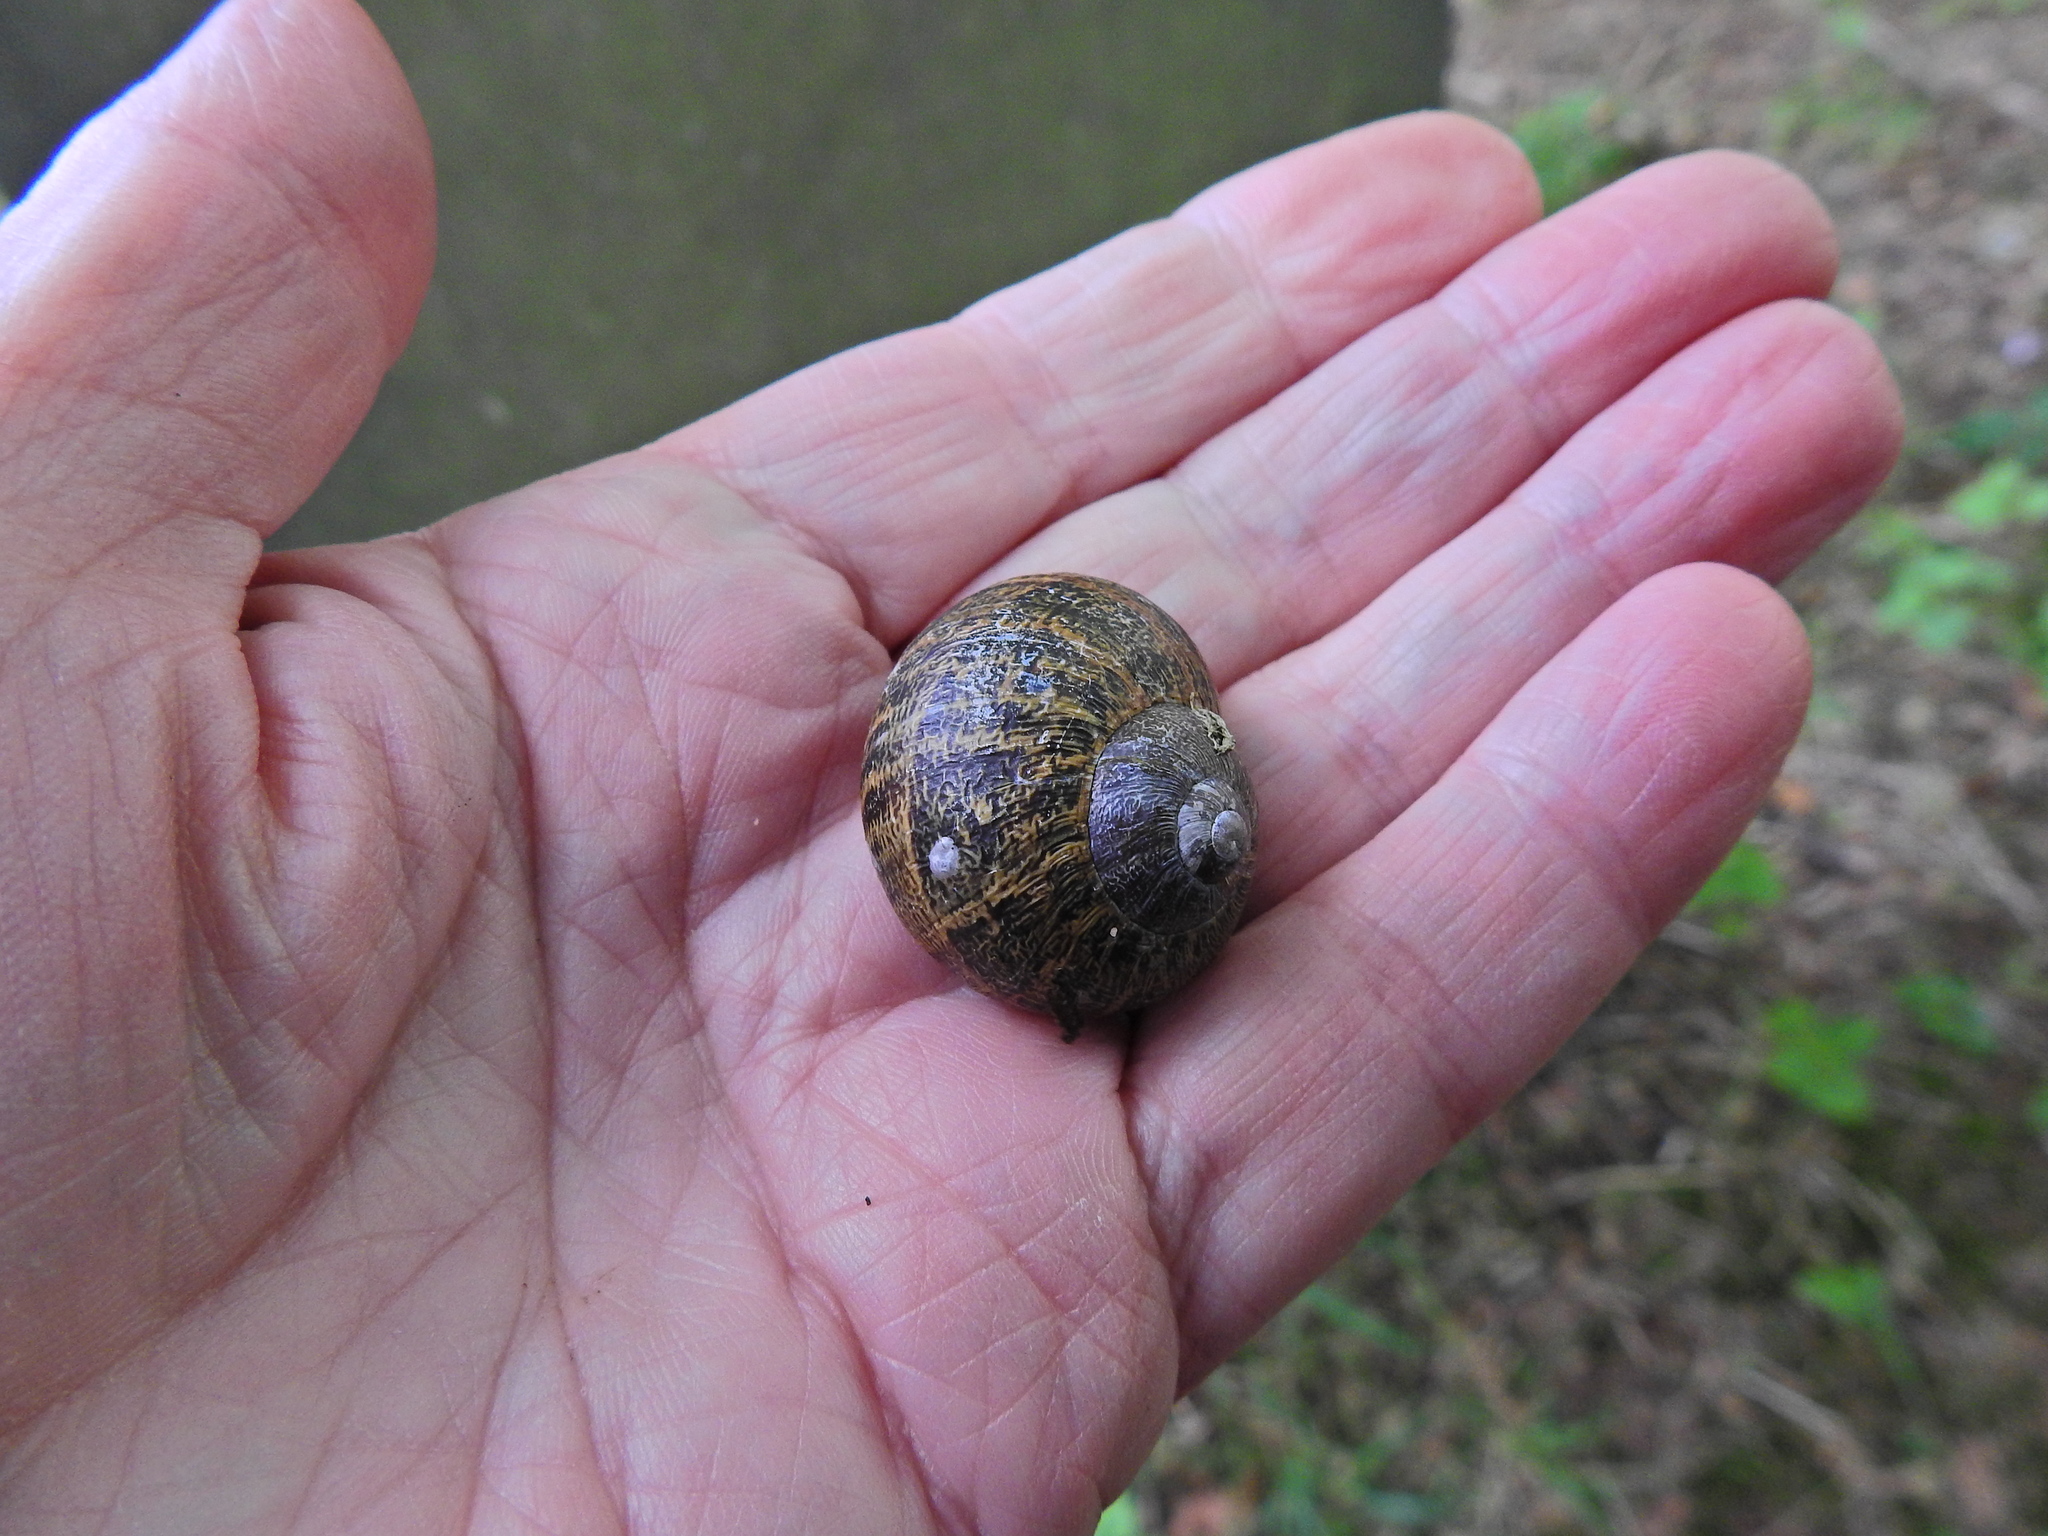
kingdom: Animalia
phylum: Mollusca
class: Gastropoda
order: Stylommatophora
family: Helicidae
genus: Cornu
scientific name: Cornu aspersum
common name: Brown garden snail
